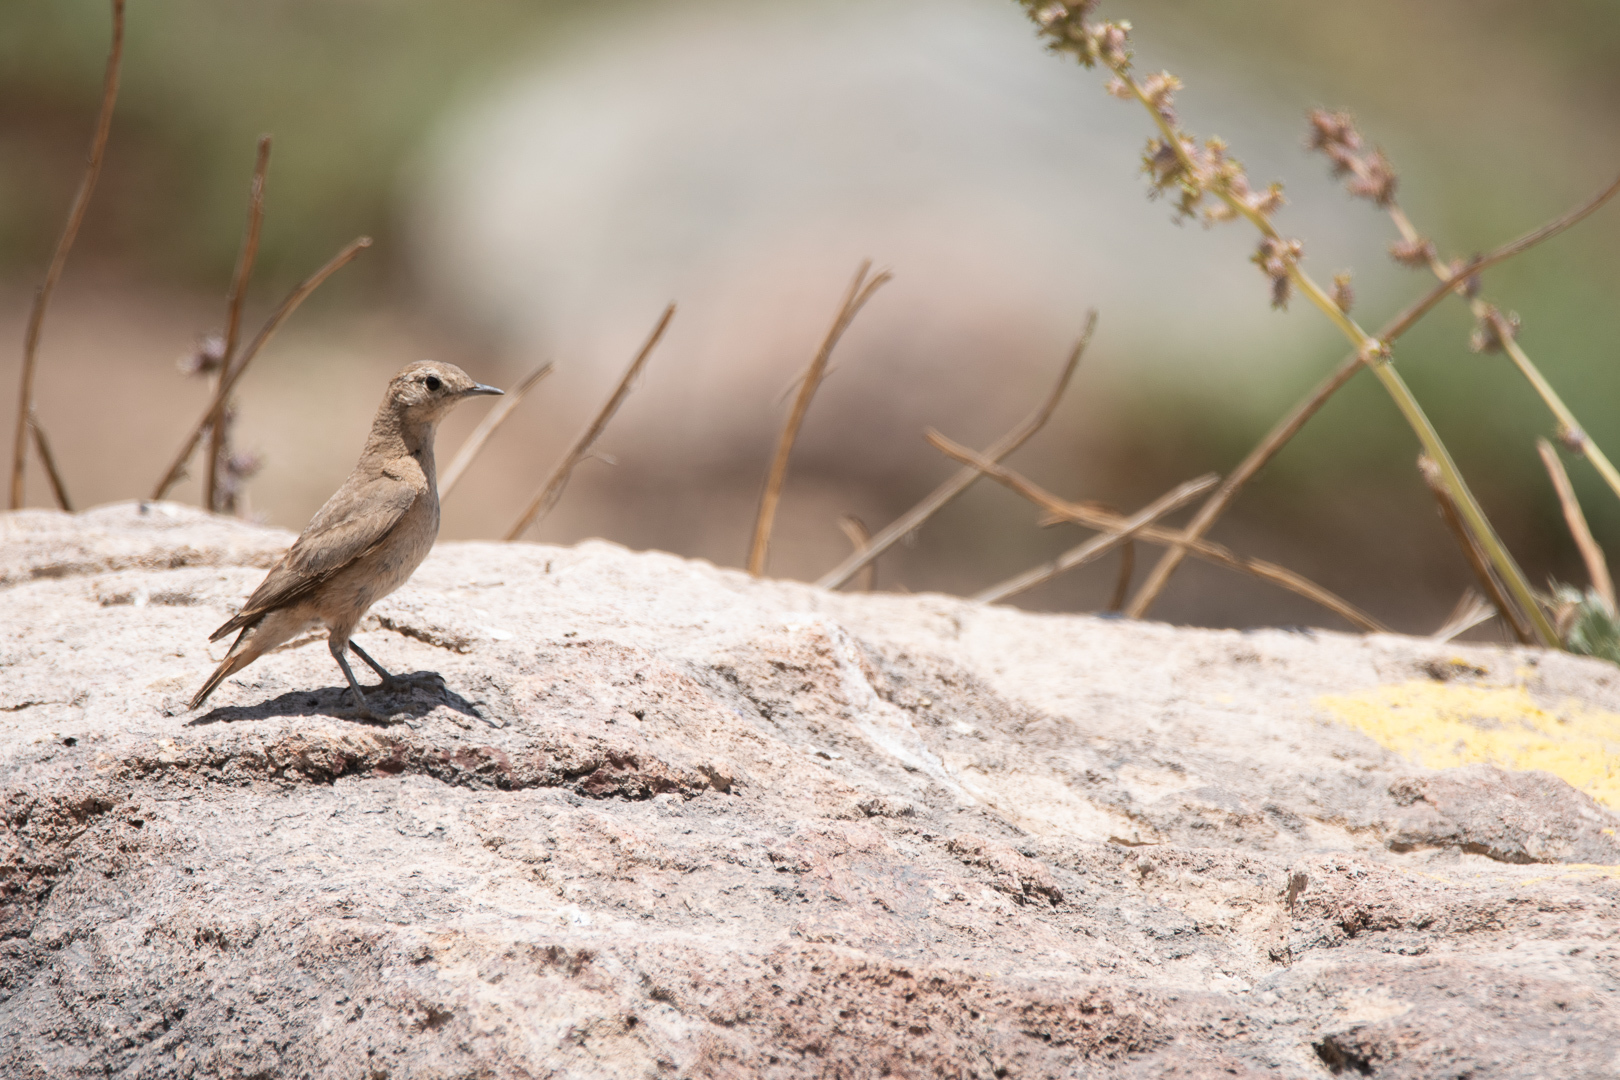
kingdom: Animalia
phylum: Chordata
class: Aves
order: Passeriformes
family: Furnariidae
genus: Geositta
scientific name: Geositta rufipennis
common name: Rufous-banded miner
